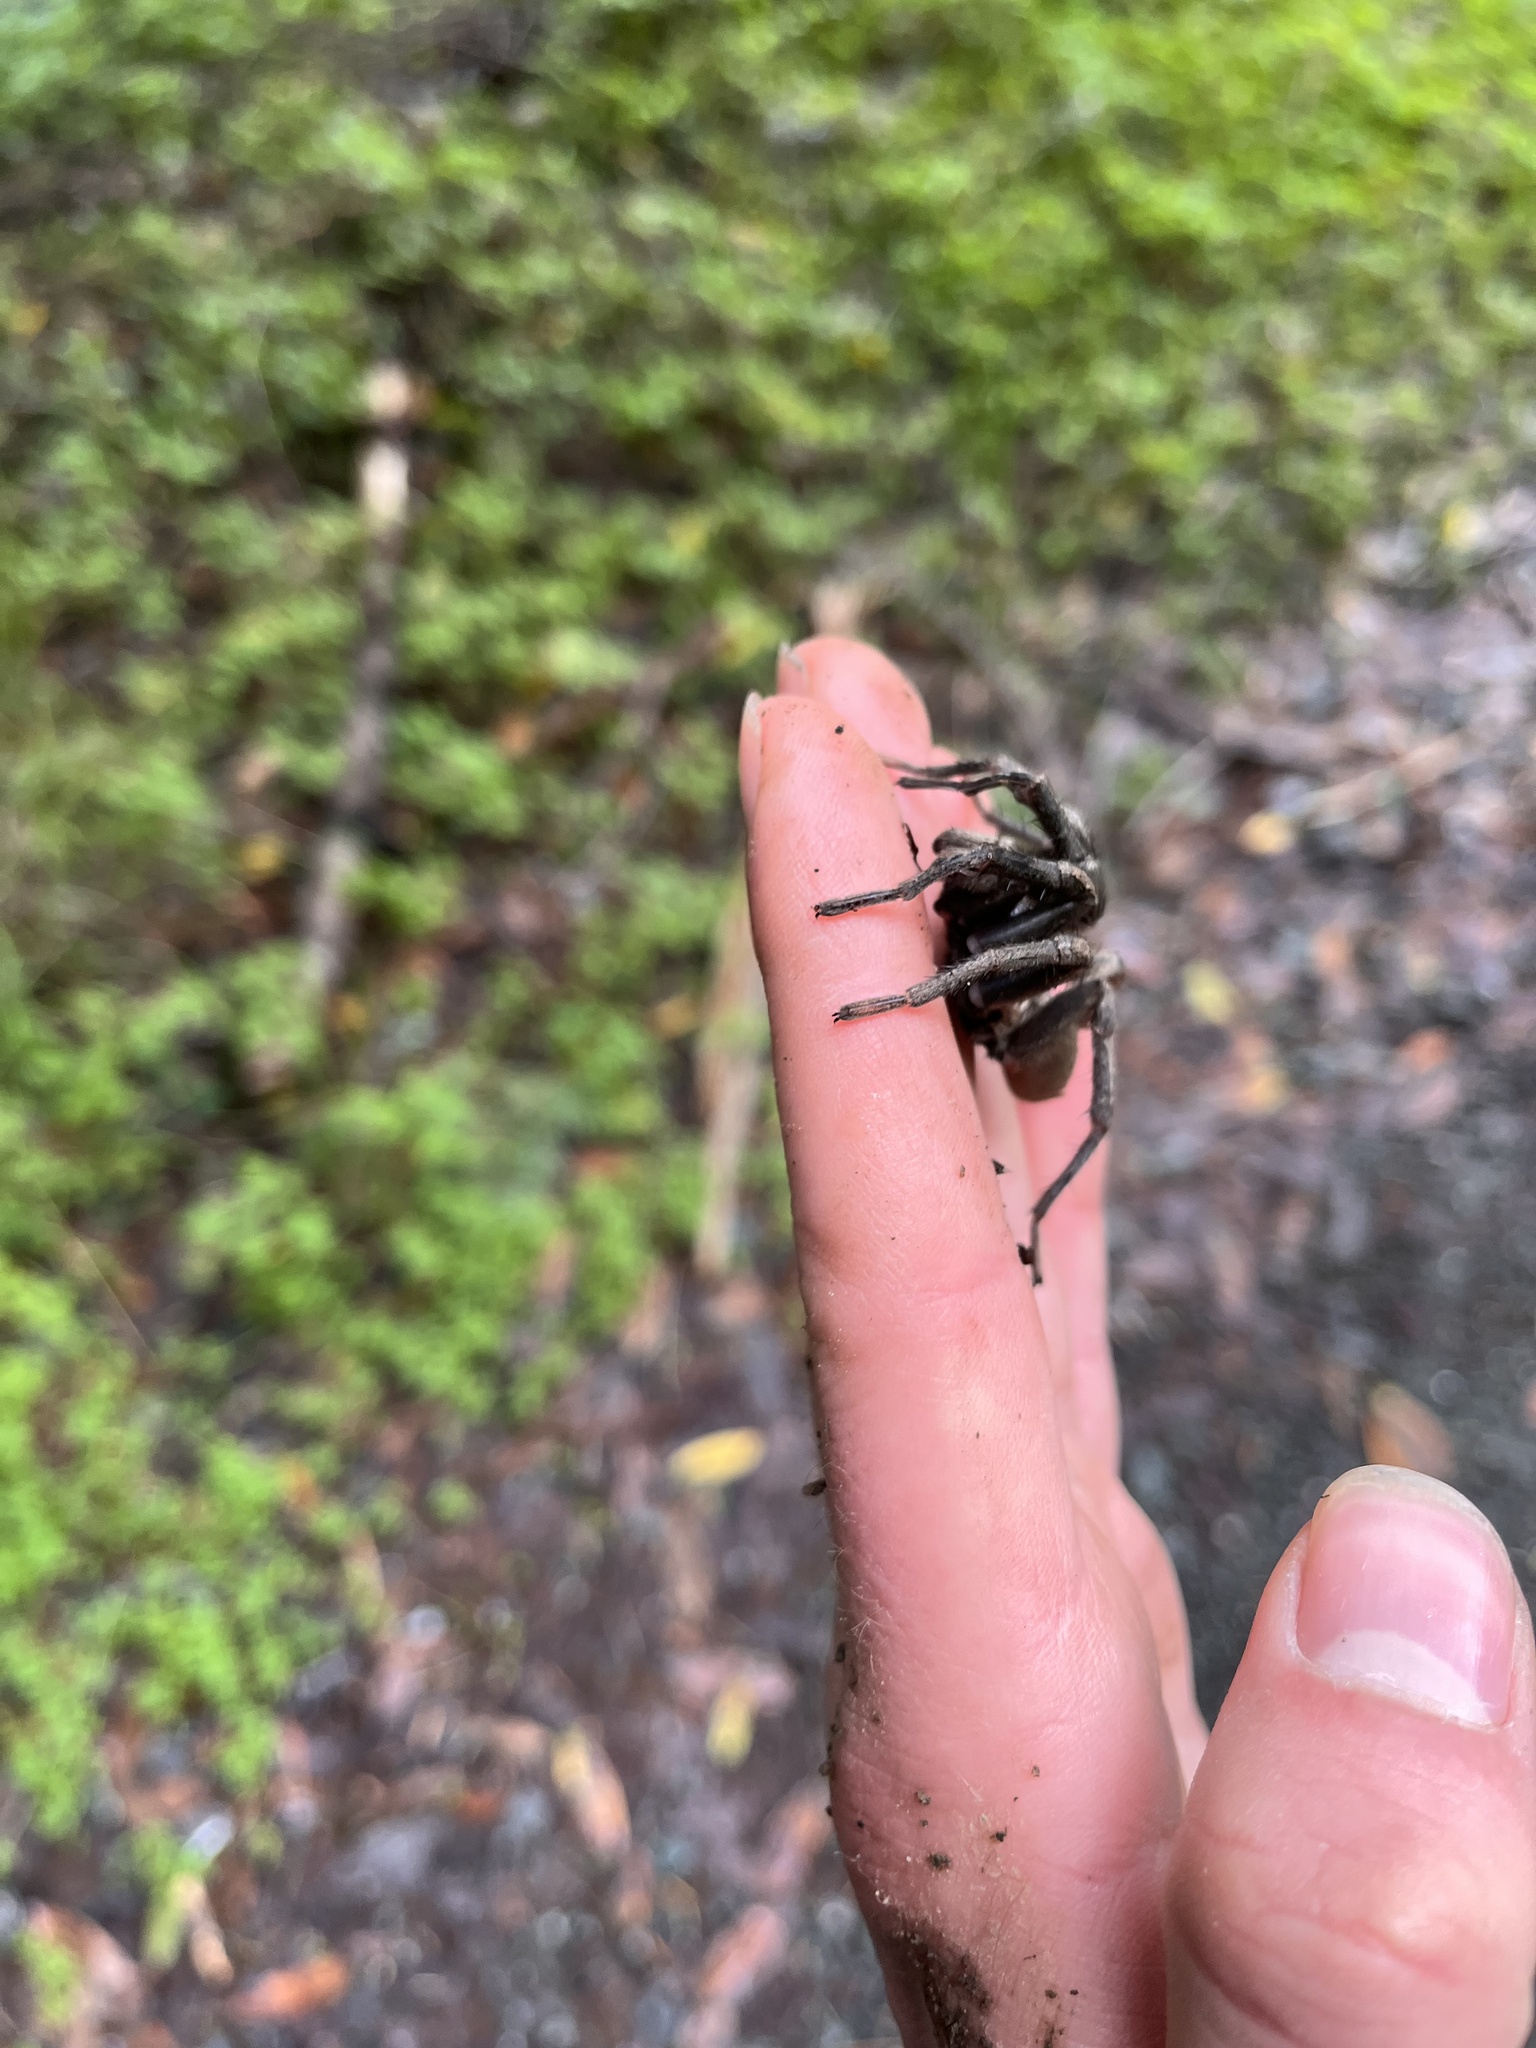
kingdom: Animalia
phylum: Arthropoda
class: Arachnida
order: Araneae
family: Nemesiidae
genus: Calisoga
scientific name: Calisoga longitarsis
